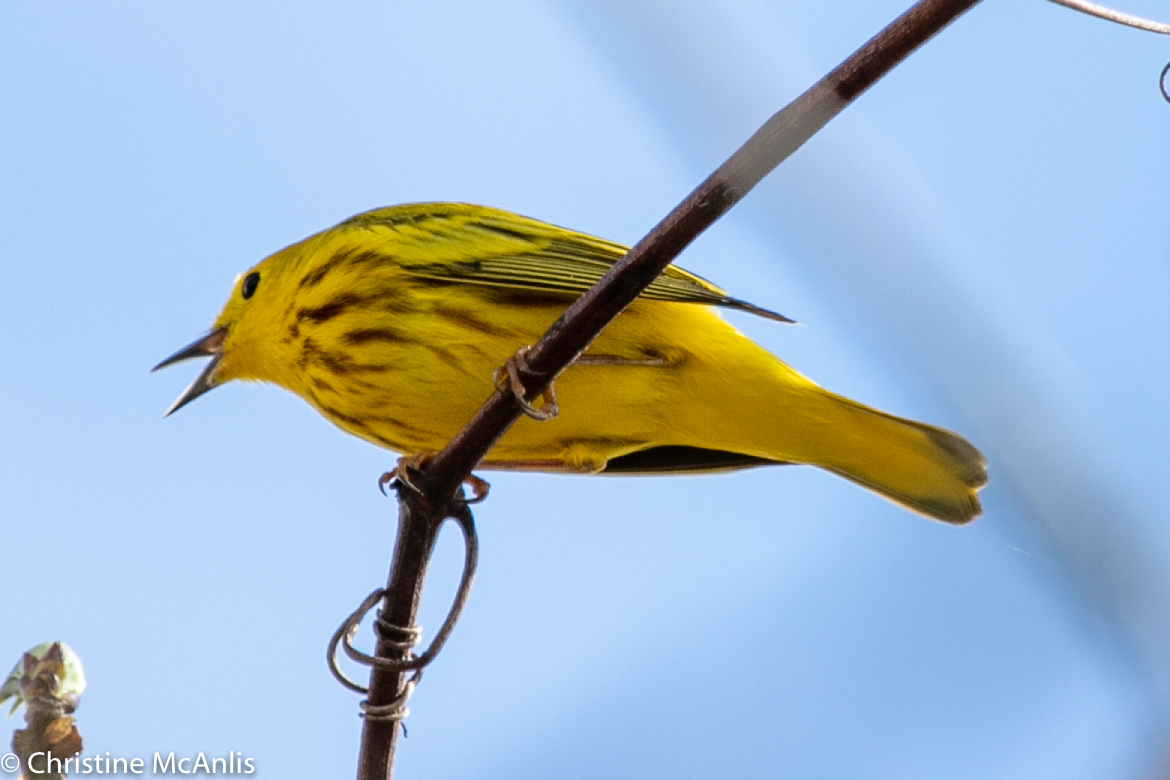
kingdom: Animalia
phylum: Chordata
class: Aves
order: Passeriformes
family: Parulidae
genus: Setophaga
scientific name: Setophaga petechia
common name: Yellow warbler
